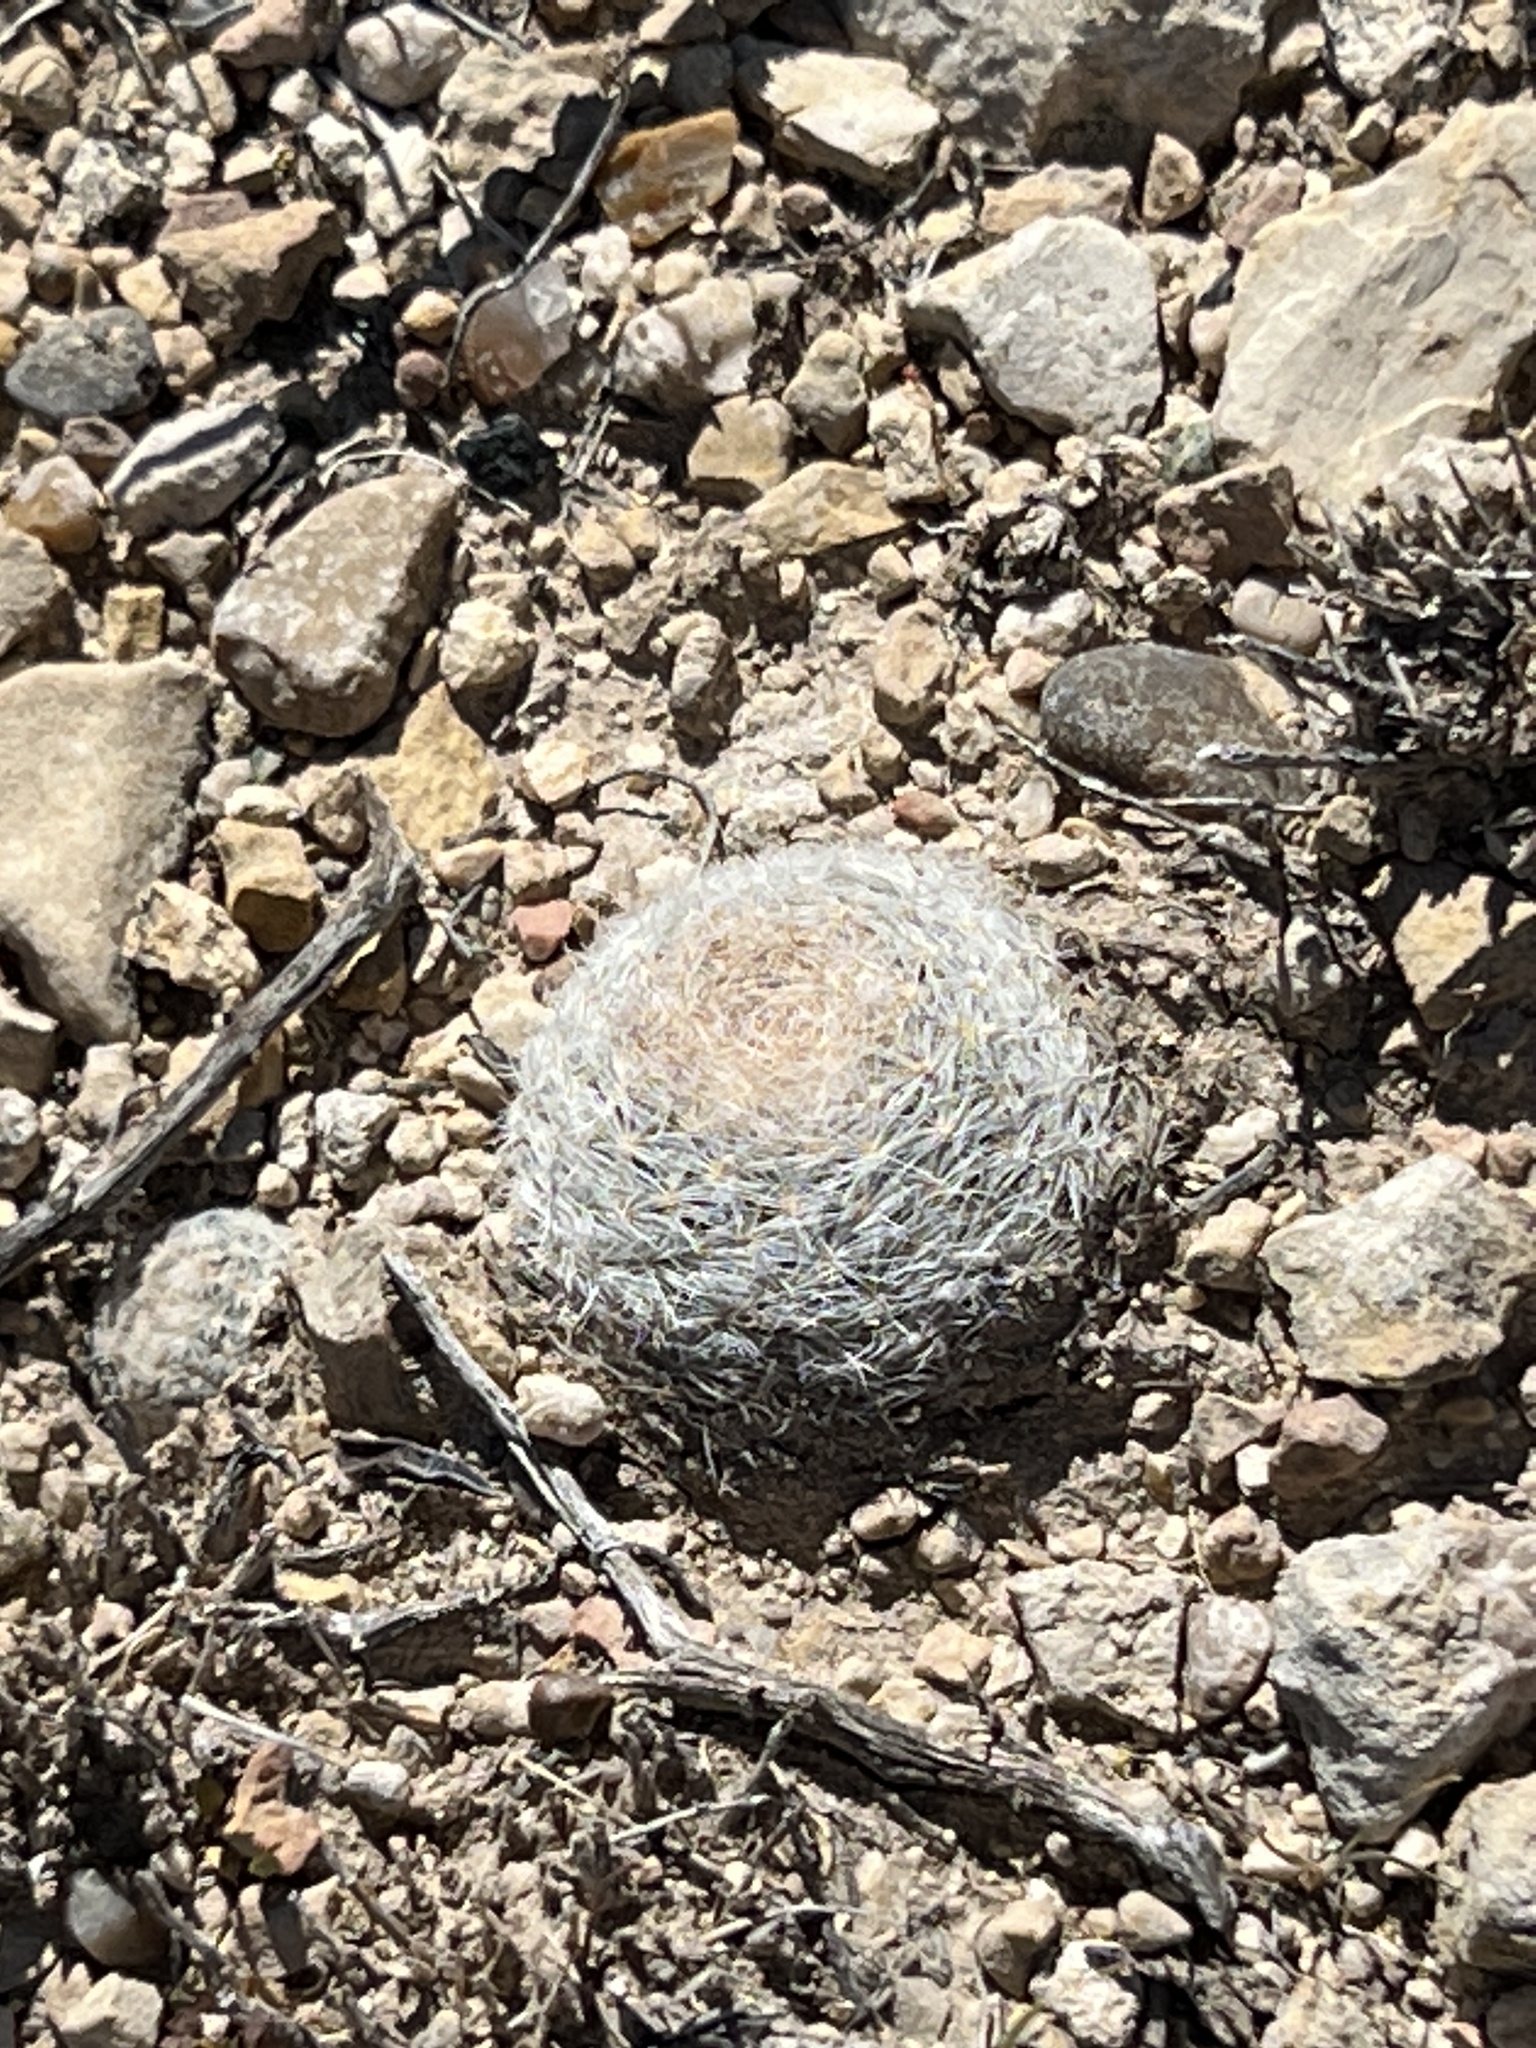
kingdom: Plantae
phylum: Tracheophyta
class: Magnoliopsida
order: Caryophyllales
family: Cactaceae
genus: Mammillaria
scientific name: Mammillaria lasiacantha
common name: Lace-spine nipple cactus
